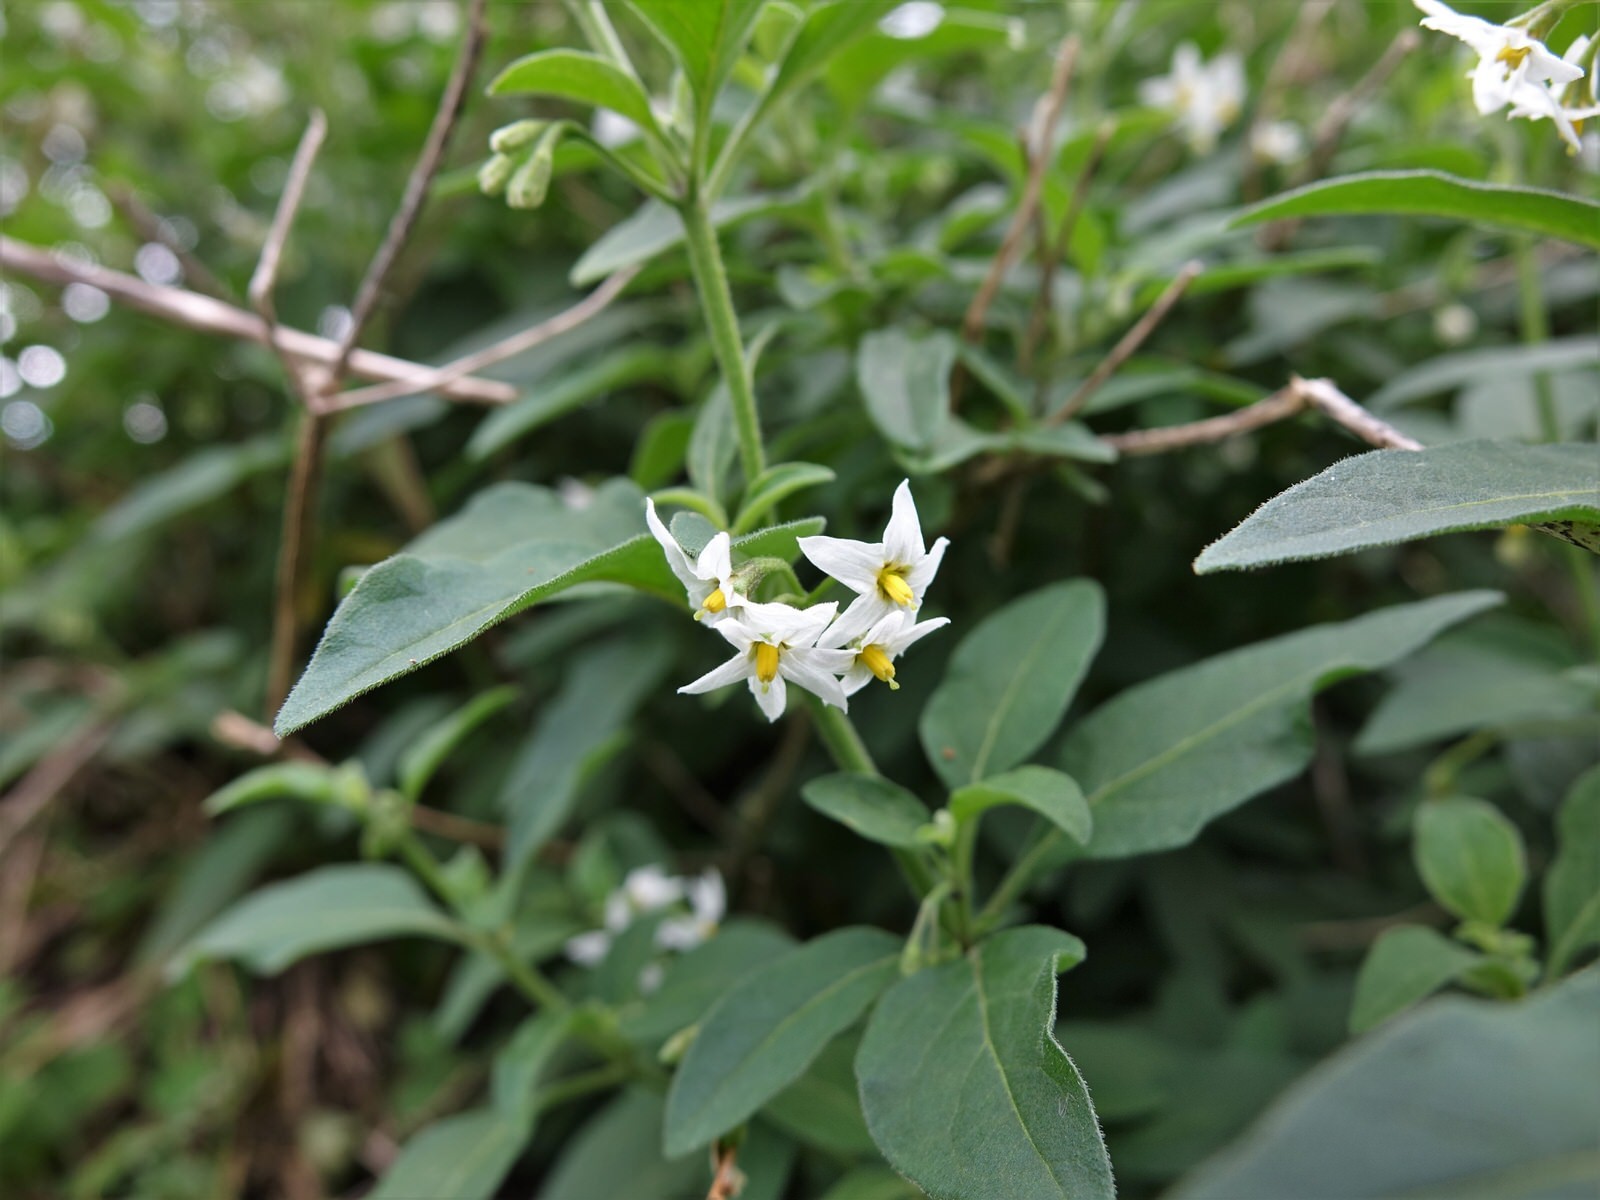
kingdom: Plantae
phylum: Tracheophyta
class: Magnoliopsida
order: Solanales
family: Solanaceae
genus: Solanum
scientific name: Solanum chenopodioides
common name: Tall nightshade
